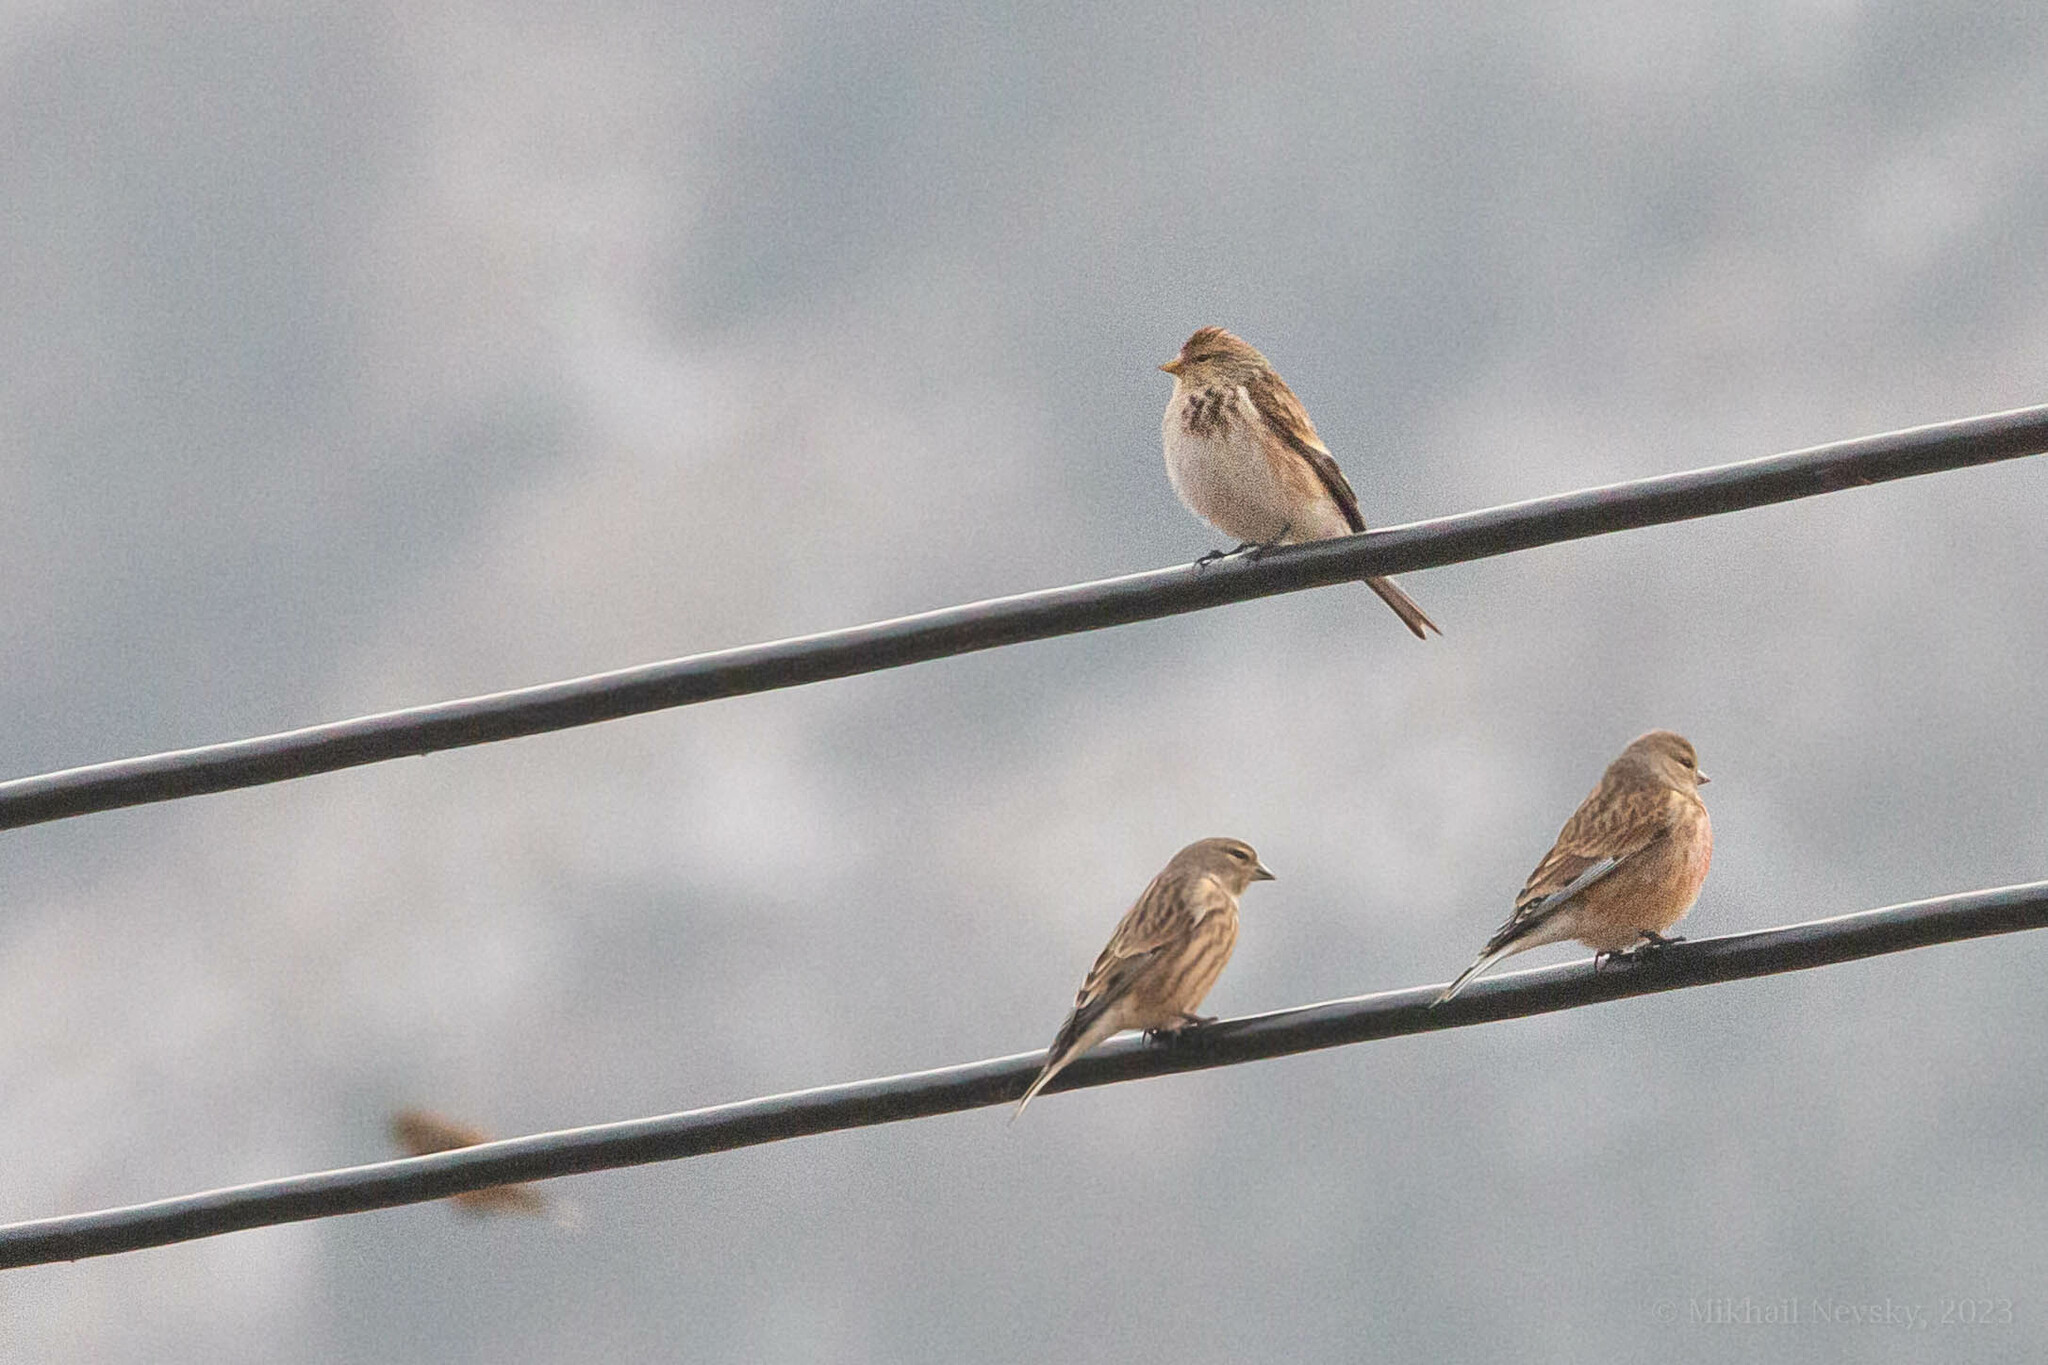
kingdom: Animalia
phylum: Chordata
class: Aves
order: Passeriformes
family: Fringillidae
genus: Linaria
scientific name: Linaria flavirostris
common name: Twite
